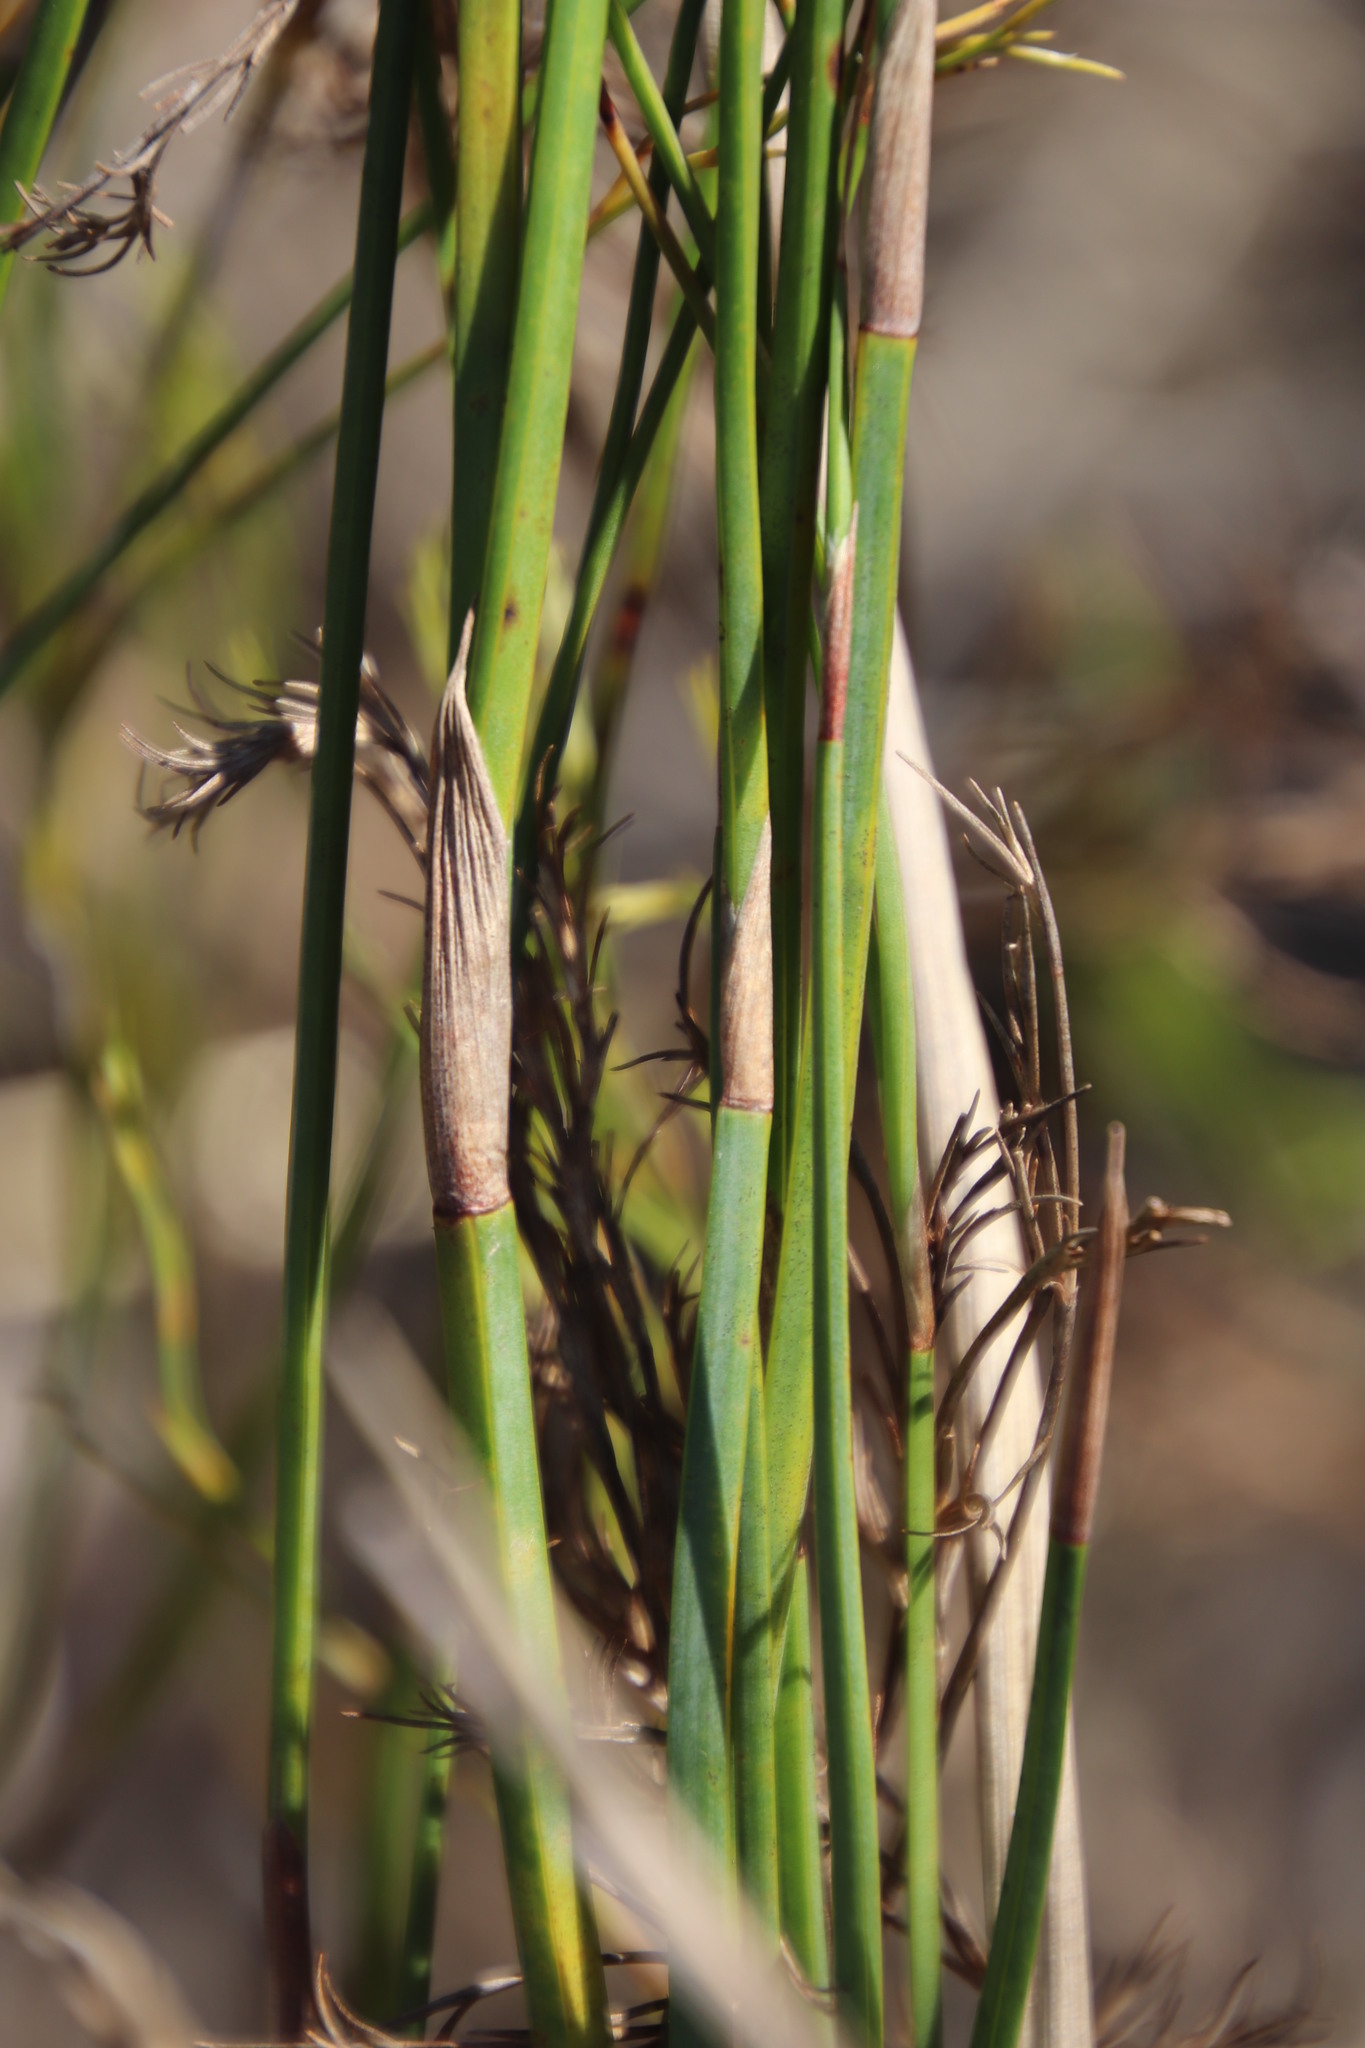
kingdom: Plantae
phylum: Tracheophyta
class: Liliopsida
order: Poales
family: Restionaceae
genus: Restio
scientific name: Restio tetragonus
